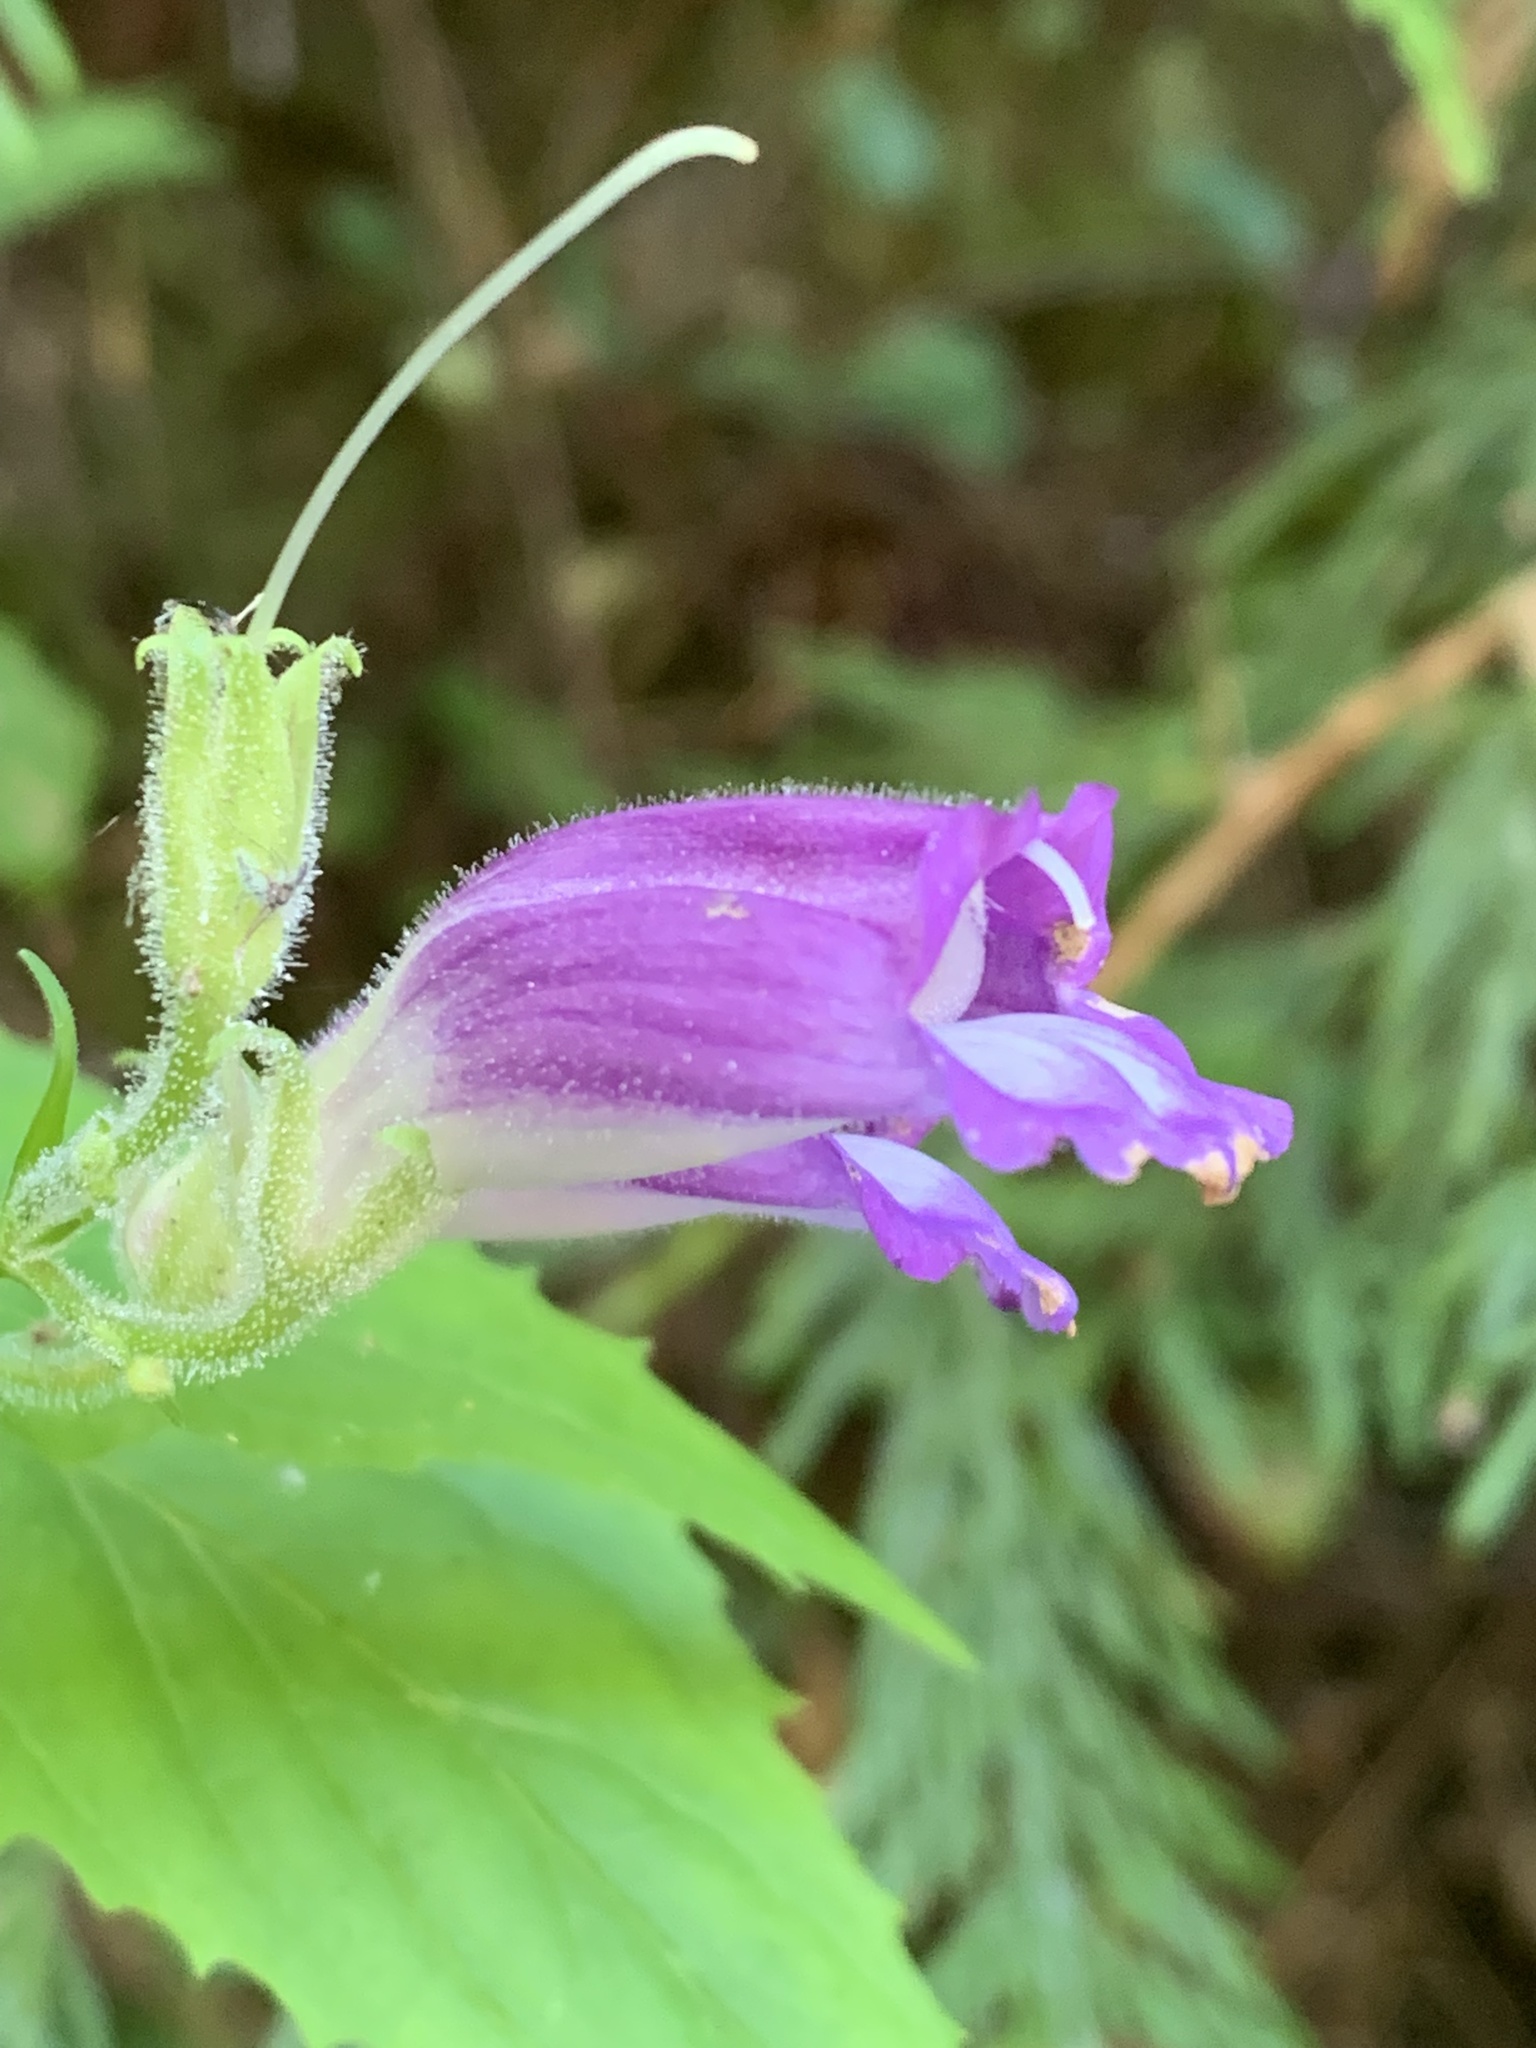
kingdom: Plantae
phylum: Tracheophyta
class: Magnoliopsida
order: Lamiales
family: Plantaginaceae
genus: Nothochelone
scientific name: Nothochelone nemorosa
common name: Woodland beardtongue
